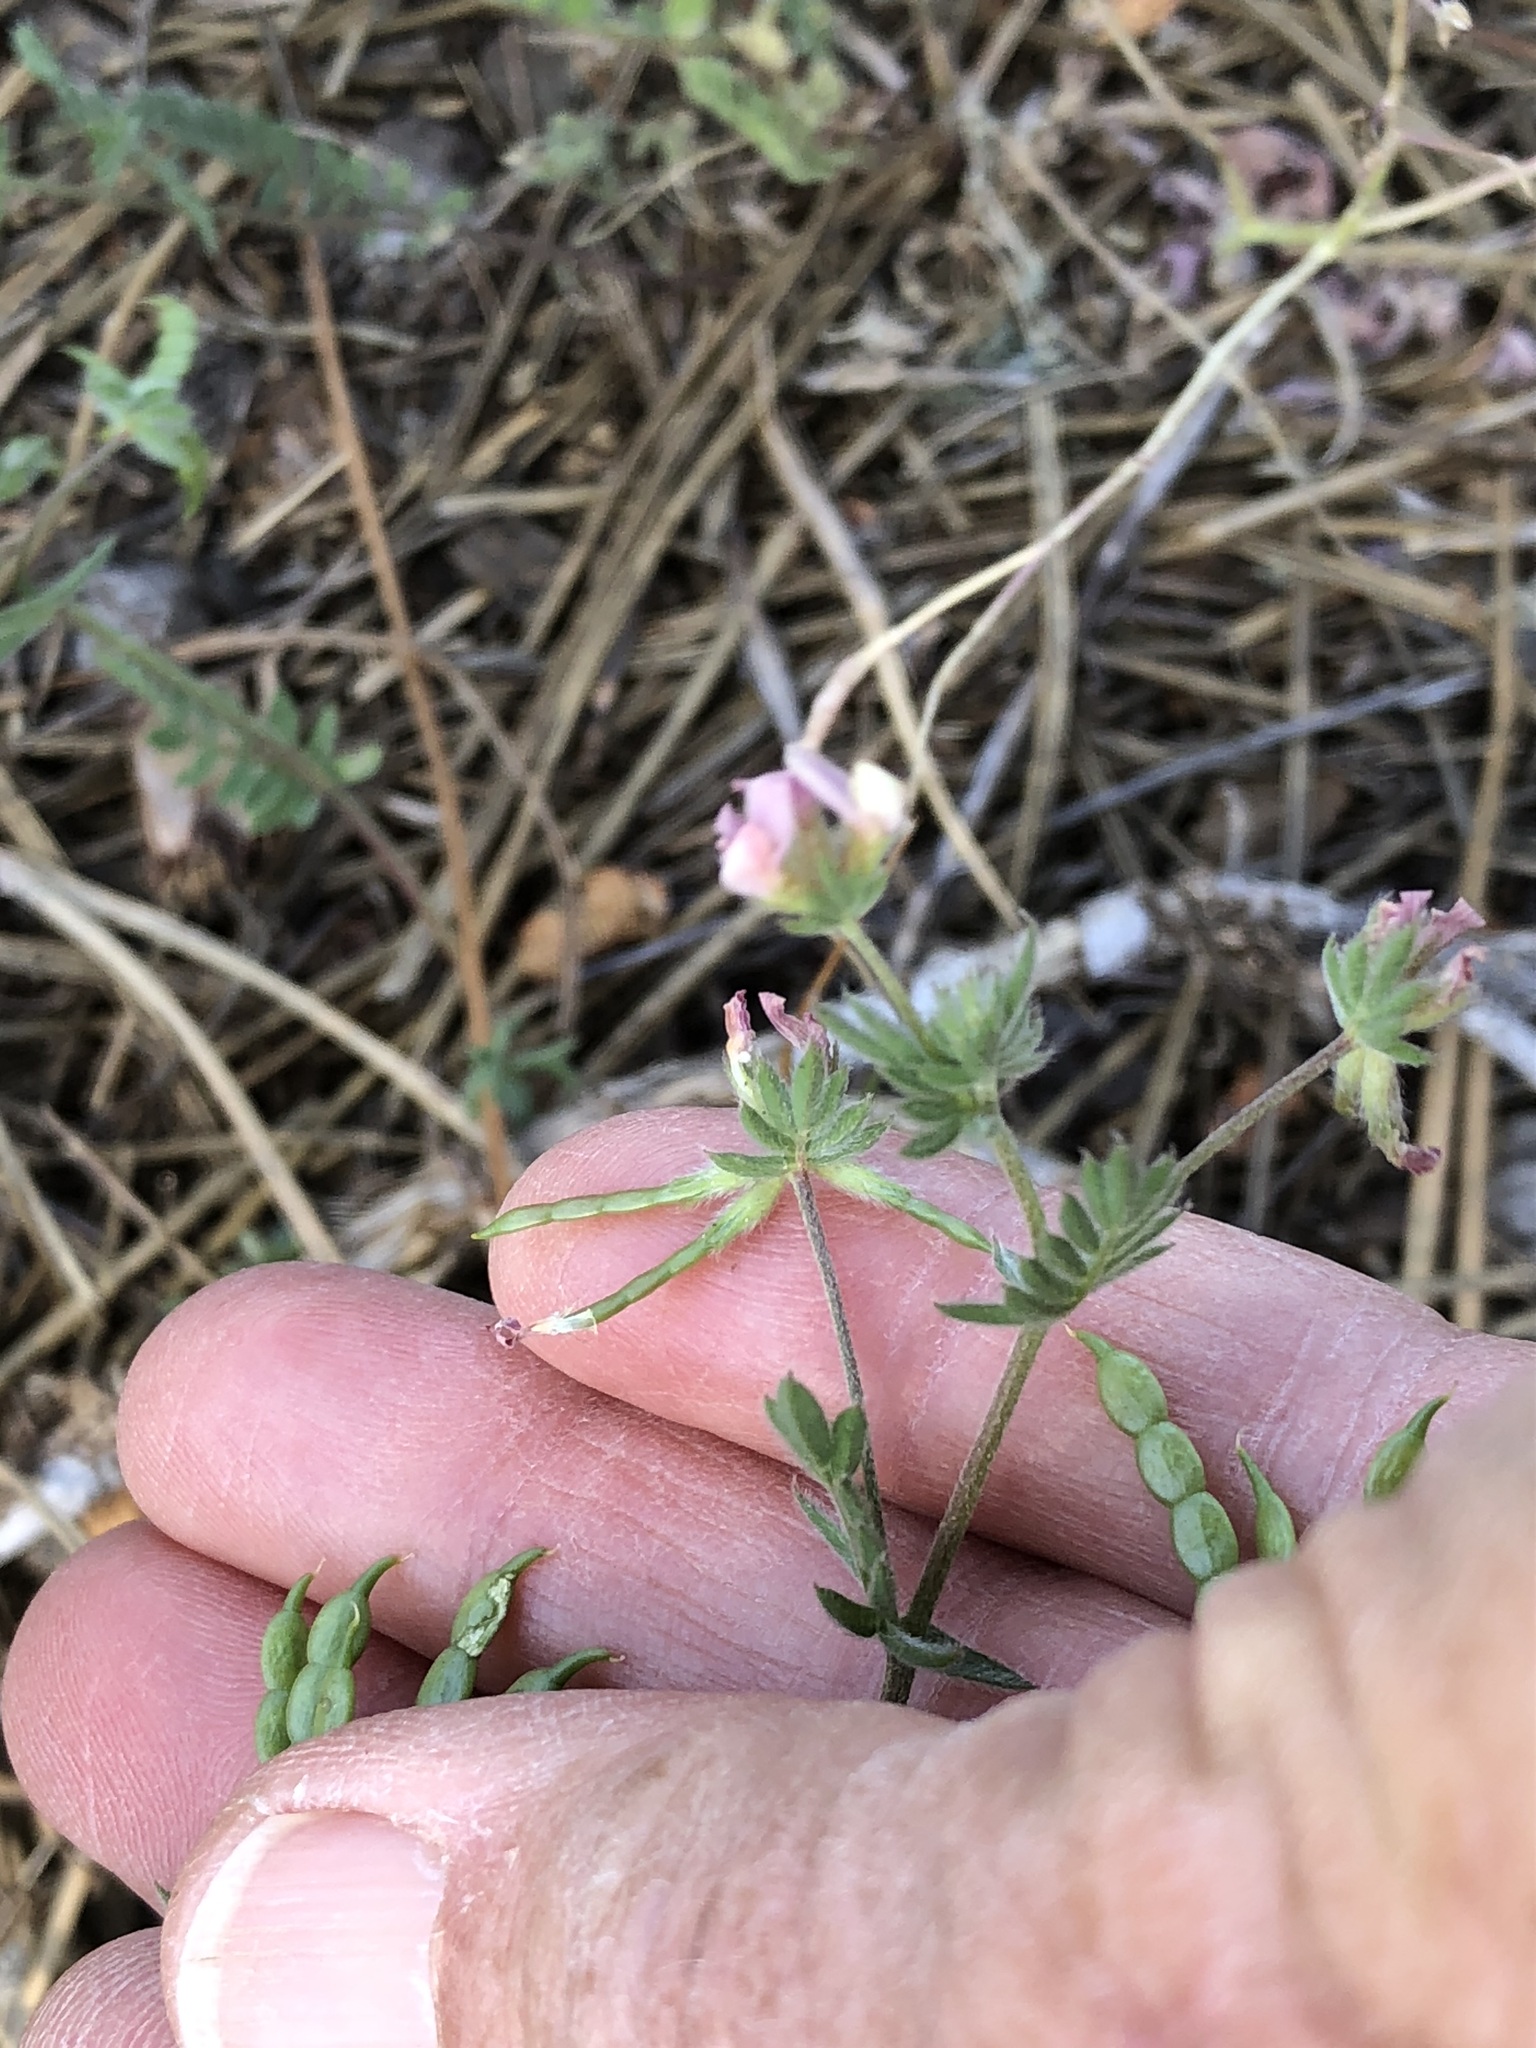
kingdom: Plantae
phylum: Tracheophyta
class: Magnoliopsida
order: Fabales
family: Fabaceae
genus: Ornithopus
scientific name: Ornithopus sativus
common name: Serradella
